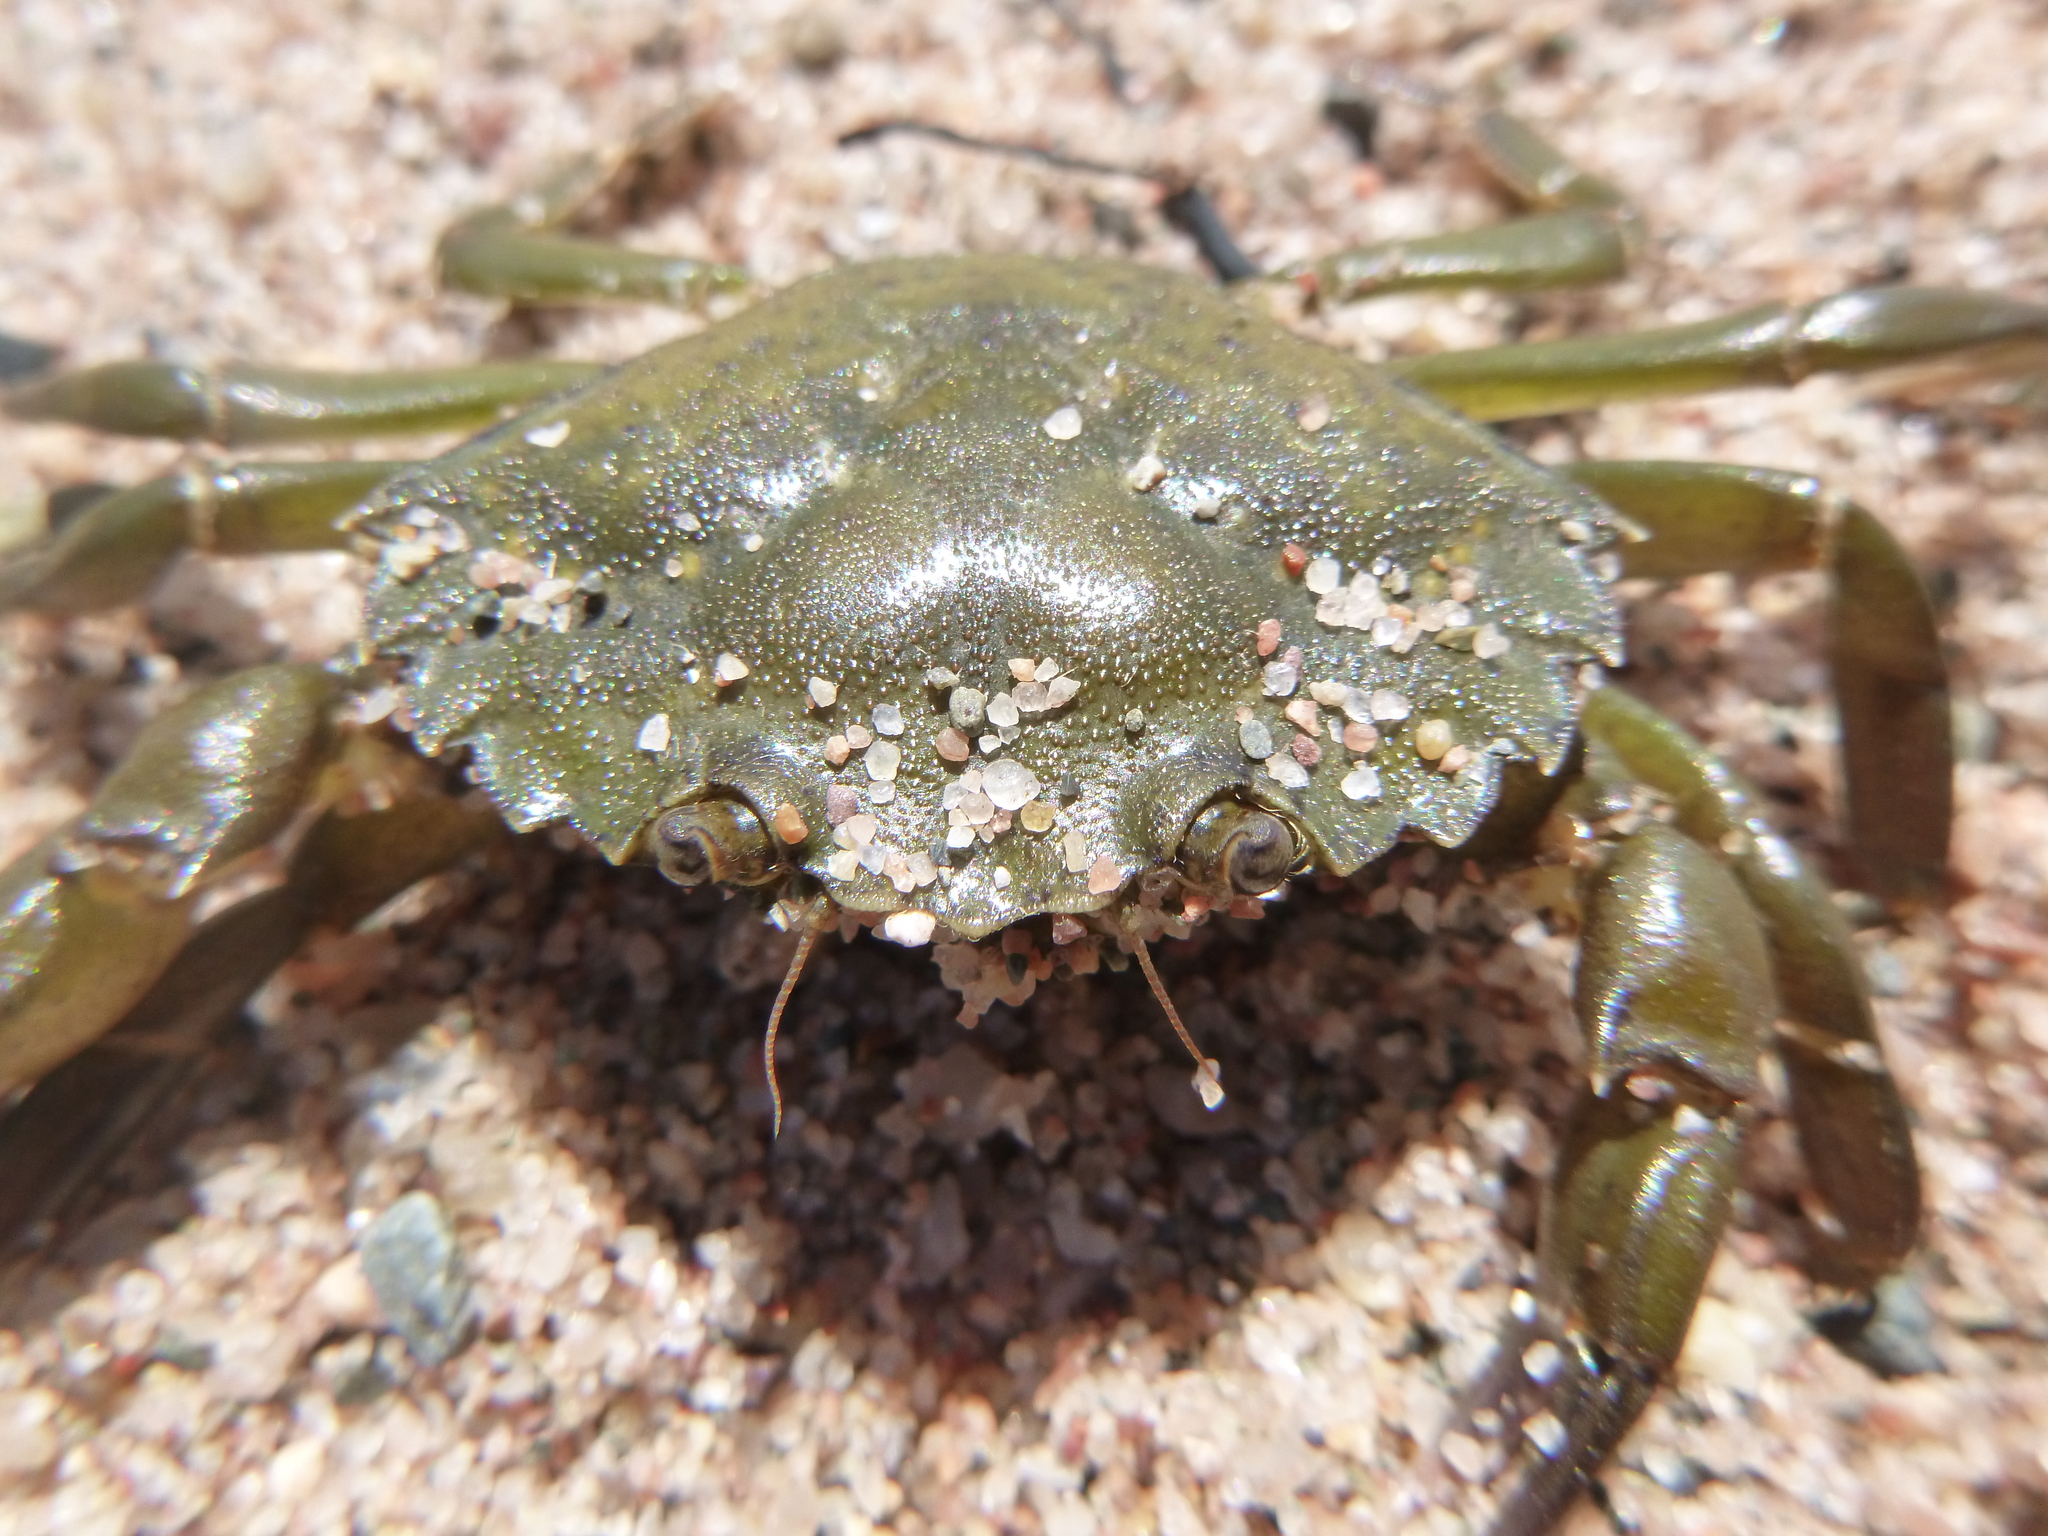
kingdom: Animalia
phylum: Arthropoda
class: Malacostraca
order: Decapoda
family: Carcinidae
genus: Carcinus
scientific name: Carcinus maenas
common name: European green crab
